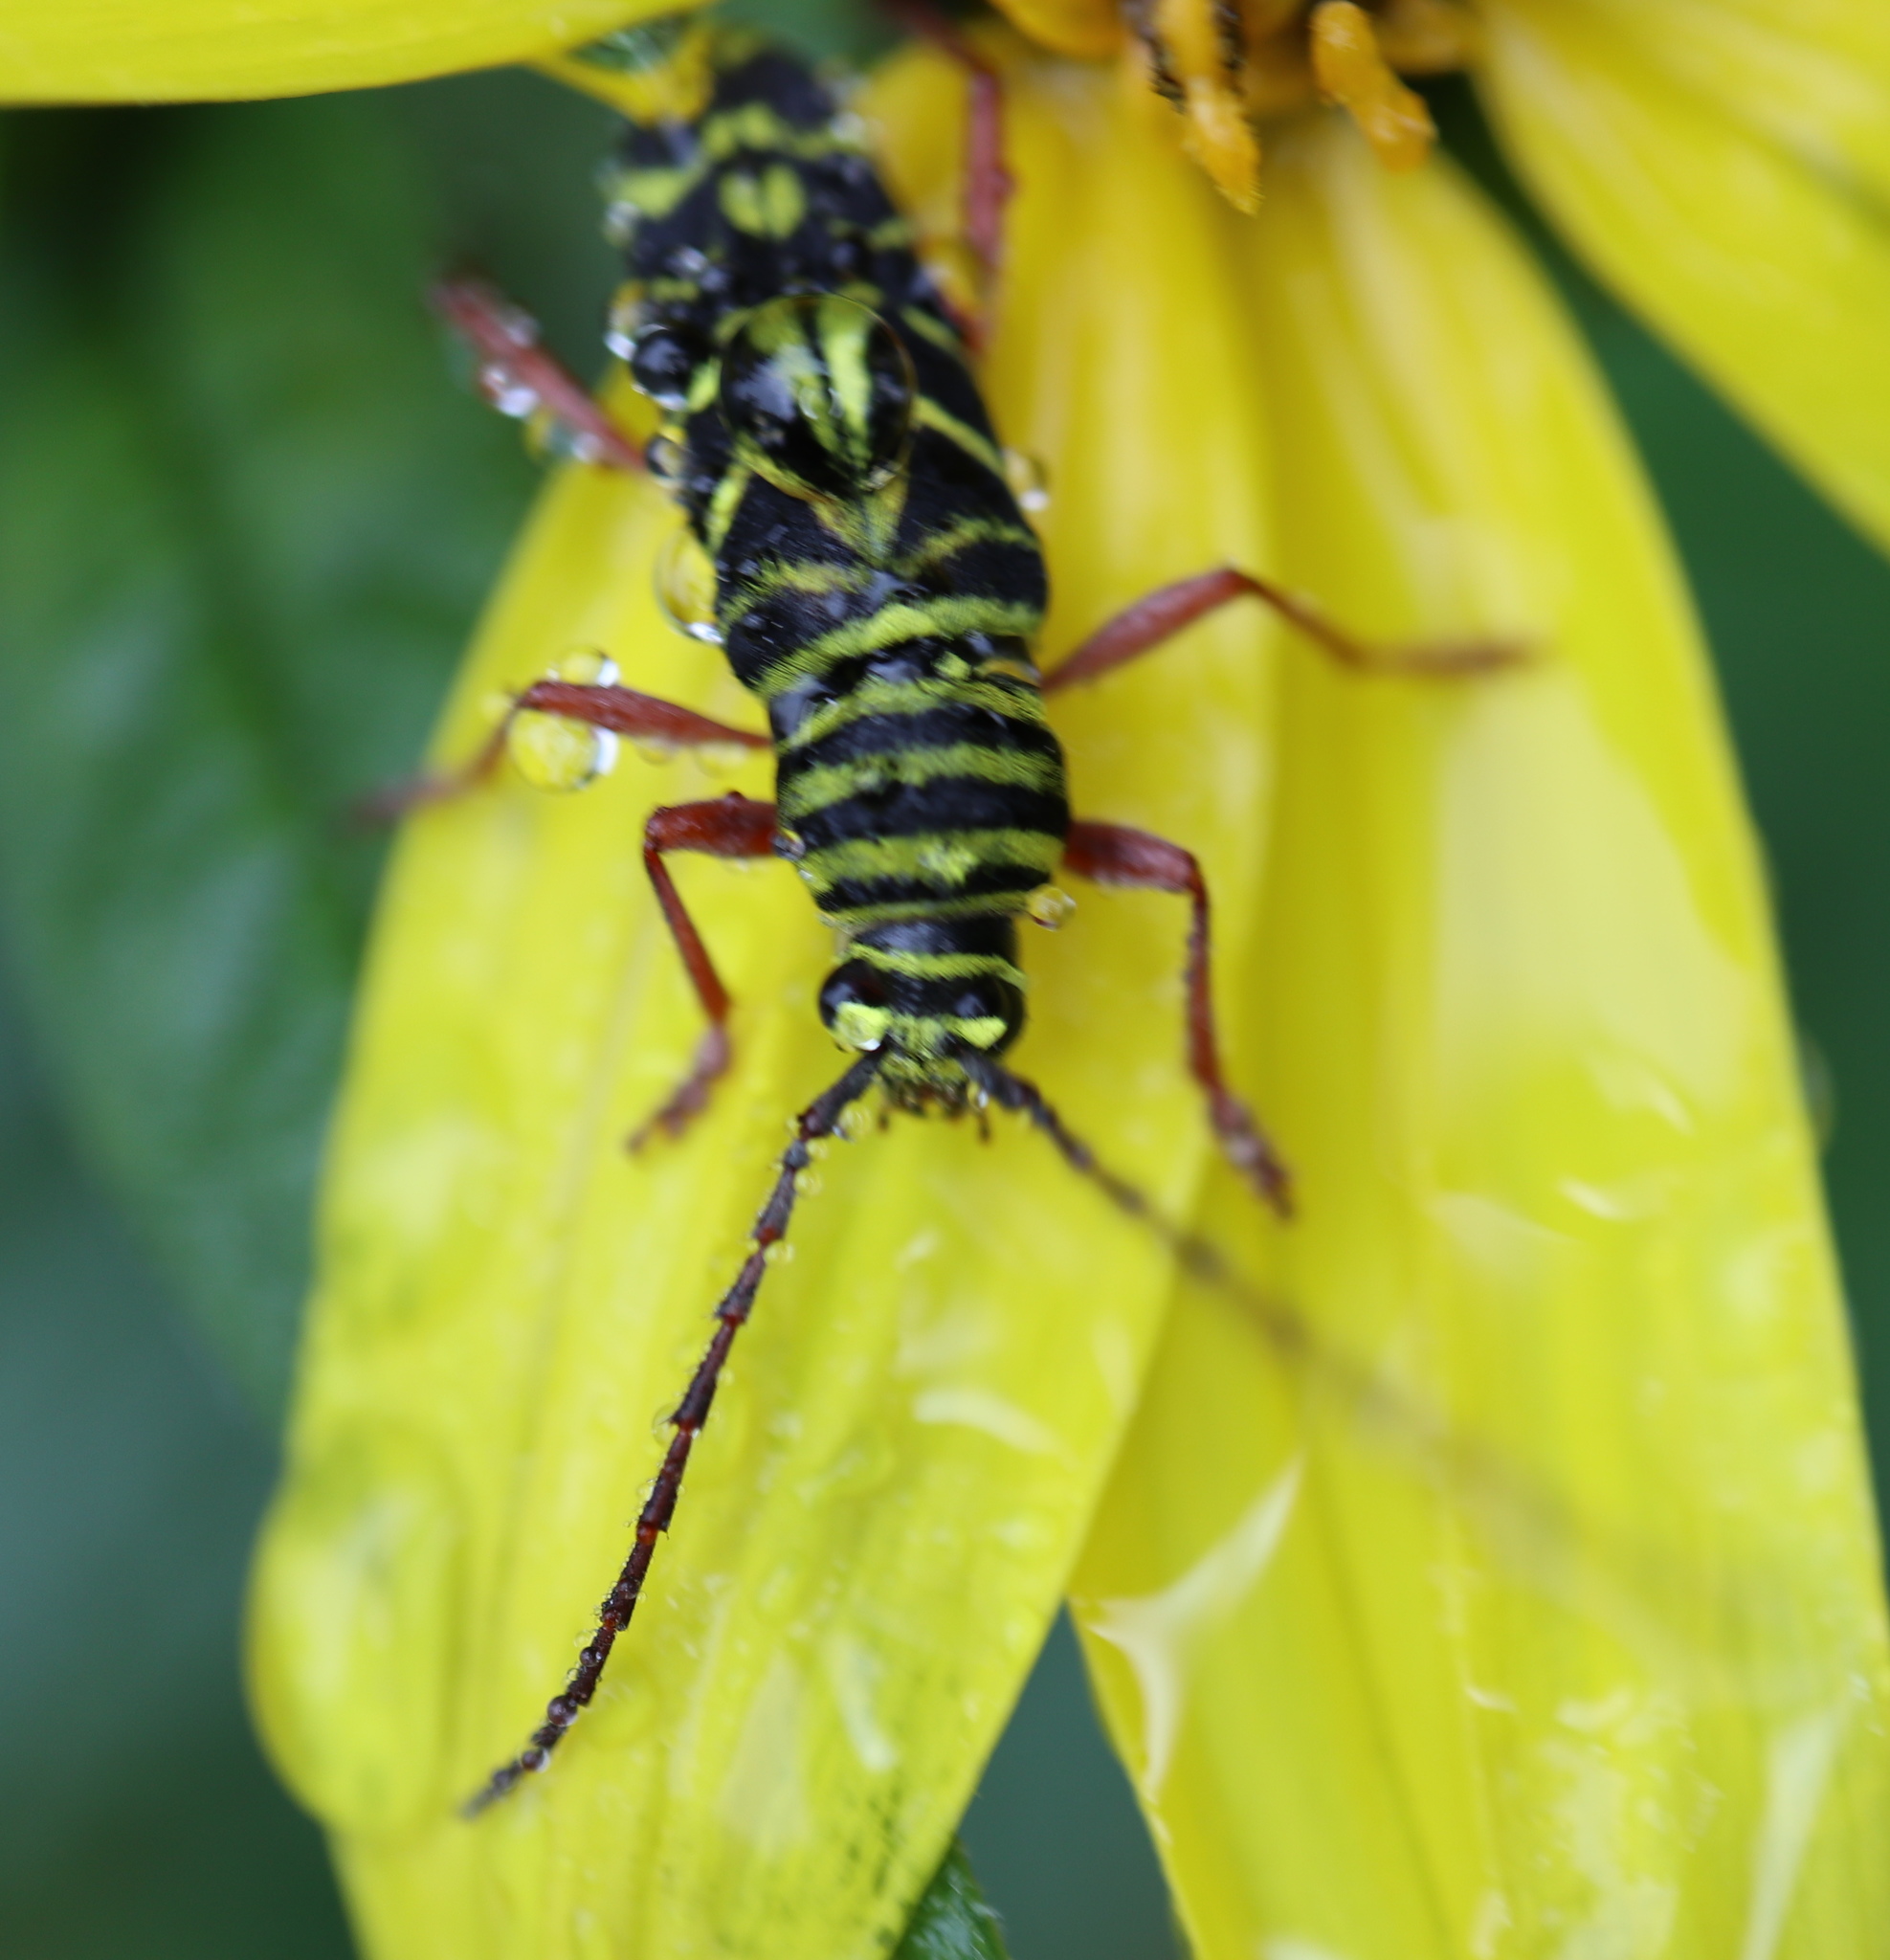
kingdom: Animalia
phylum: Arthropoda
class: Insecta
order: Coleoptera
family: Cerambycidae
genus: Megacyllene
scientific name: Megacyllene robiniae
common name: Locust borer
